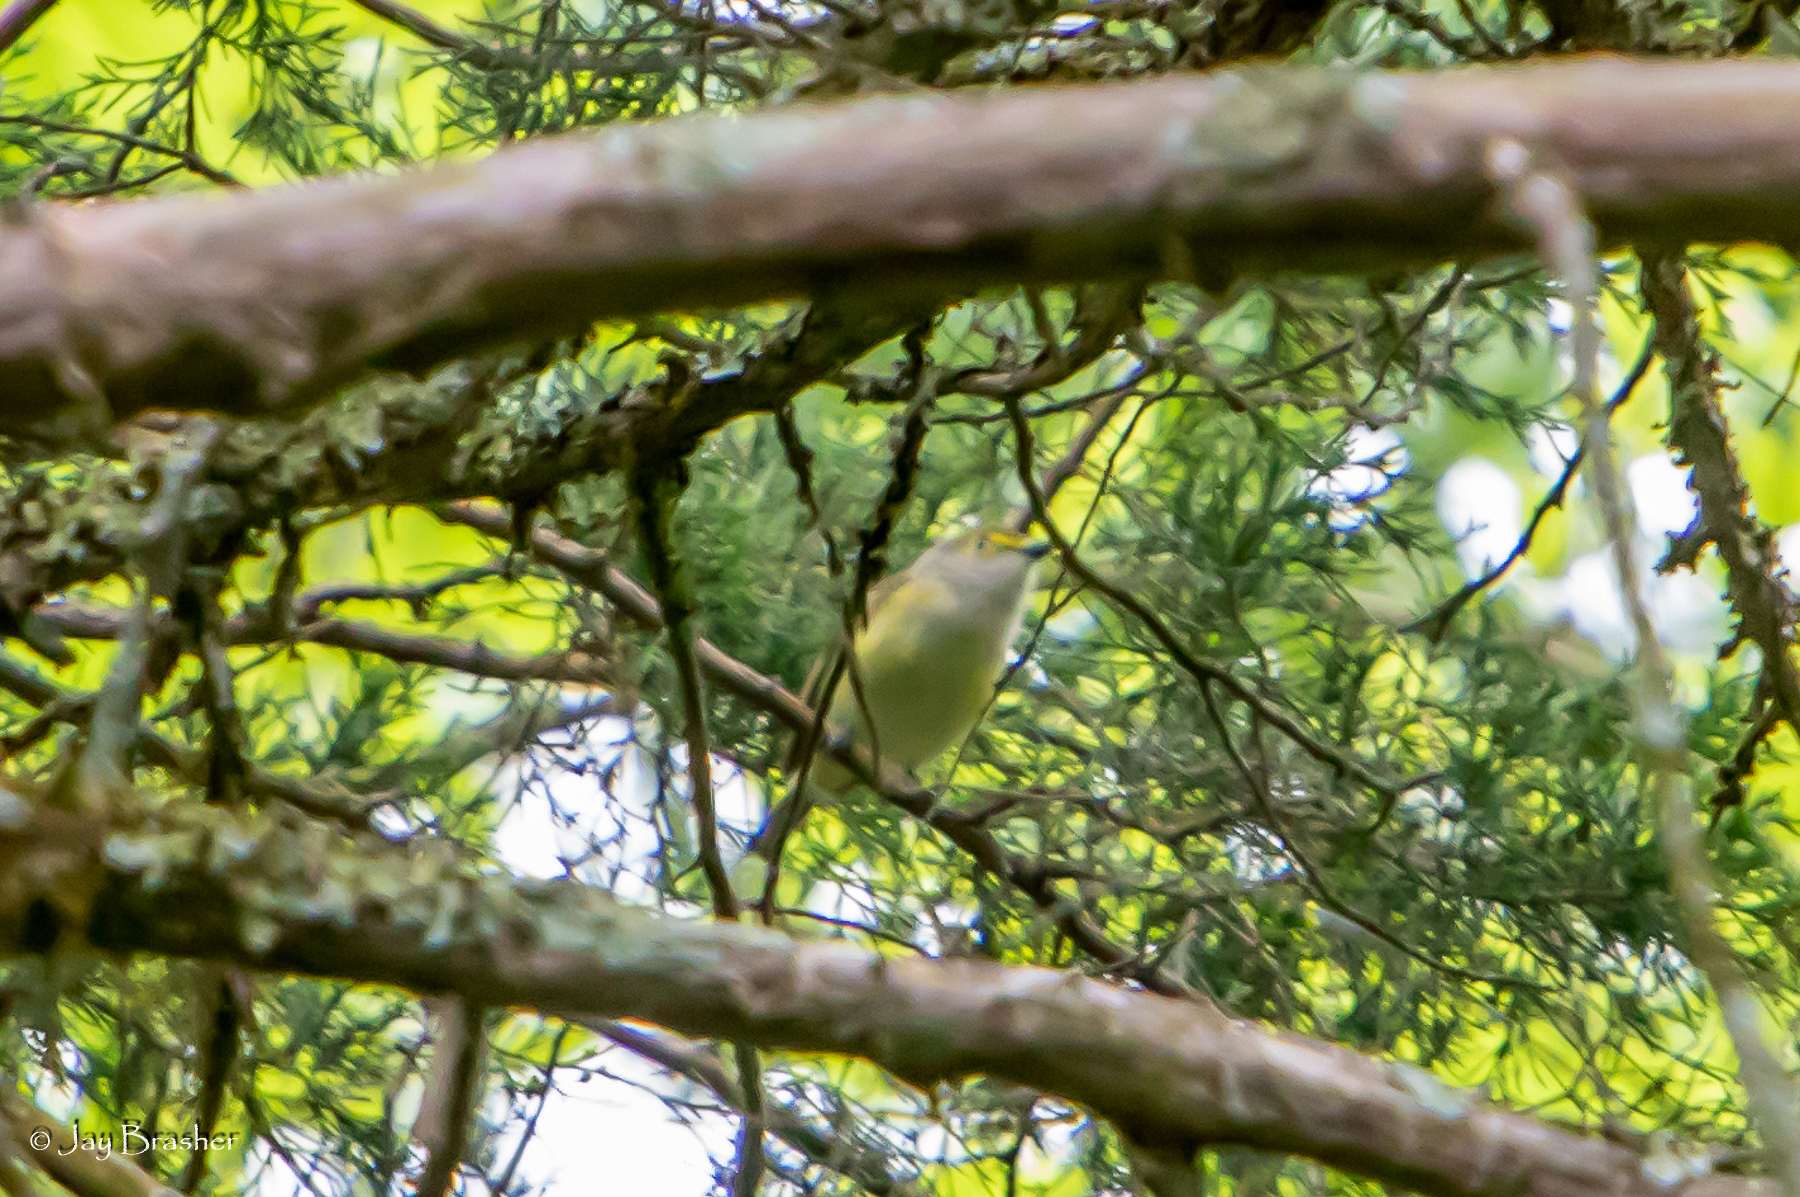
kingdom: Animalia
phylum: Chordata
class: Aves
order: Passeriformes
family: Vireonidae
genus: Vireo
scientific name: Vireo griseus
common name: White-eyed vireo
